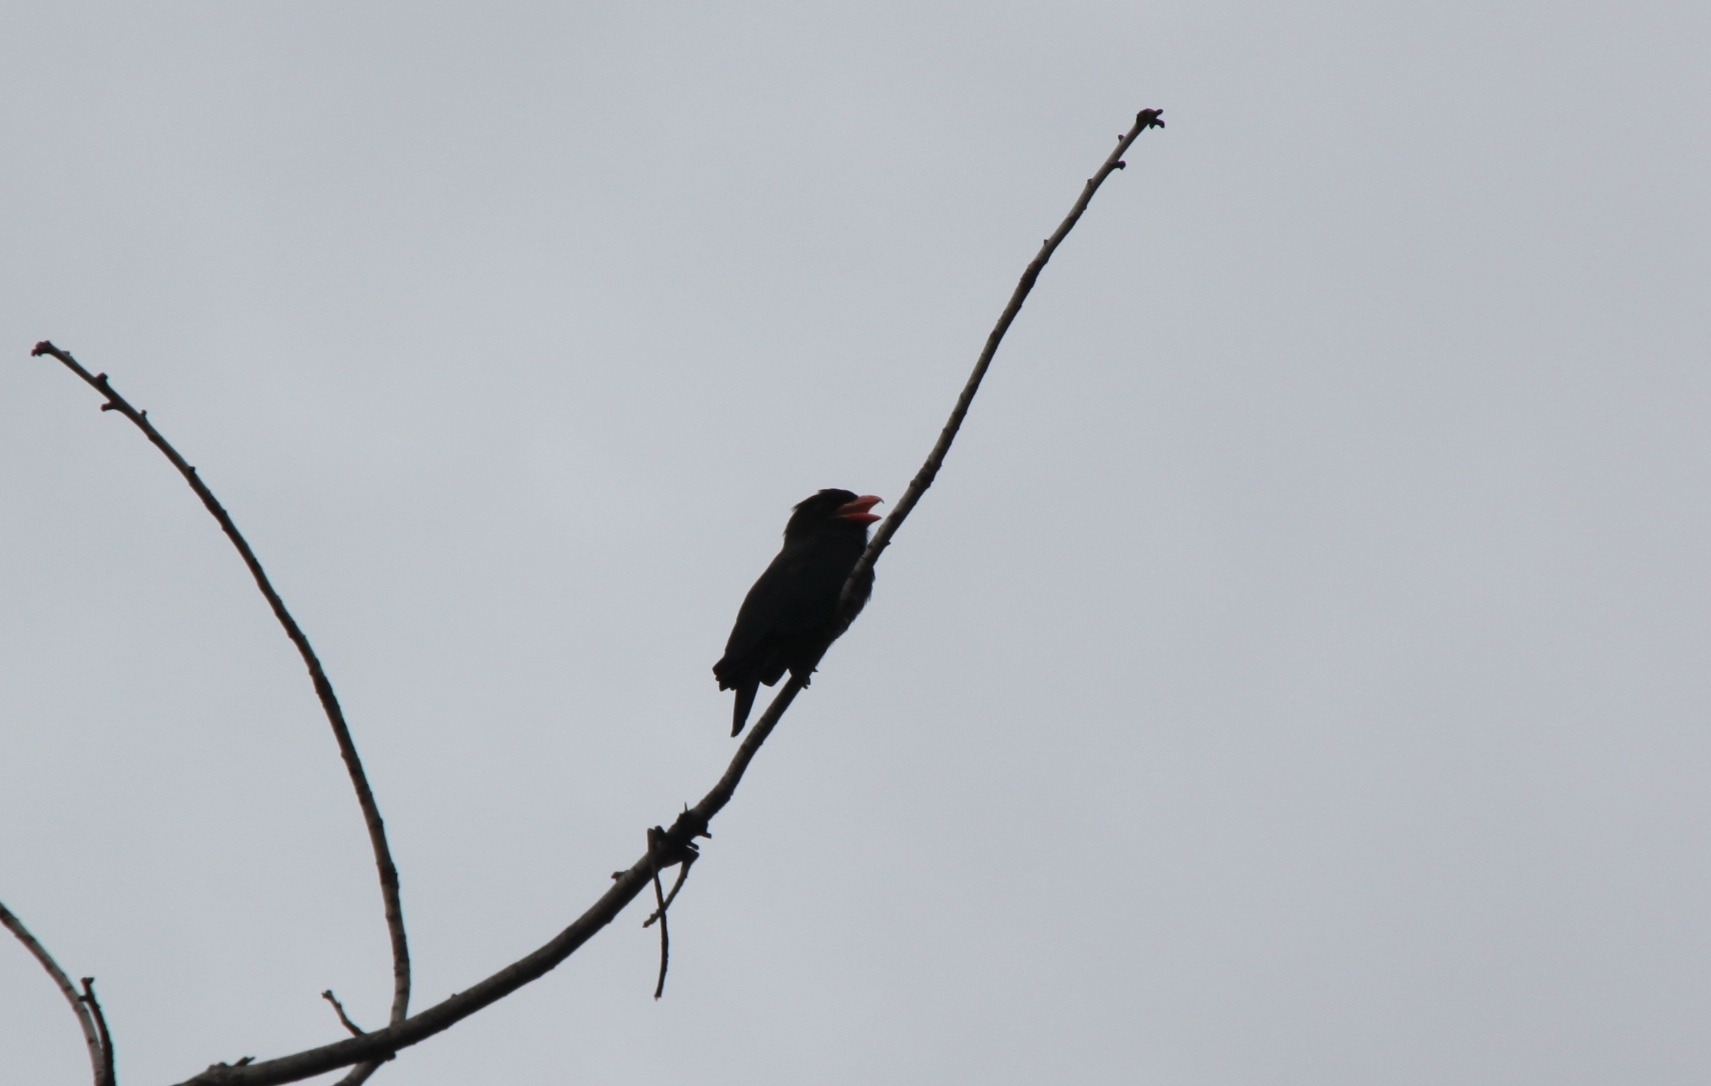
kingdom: Animalia
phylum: Chordata
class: Aves
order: Coraciiformes
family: Coraciidae
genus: Eurystomus
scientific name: Eurystomus orientalis
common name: Oriental dollarbird
